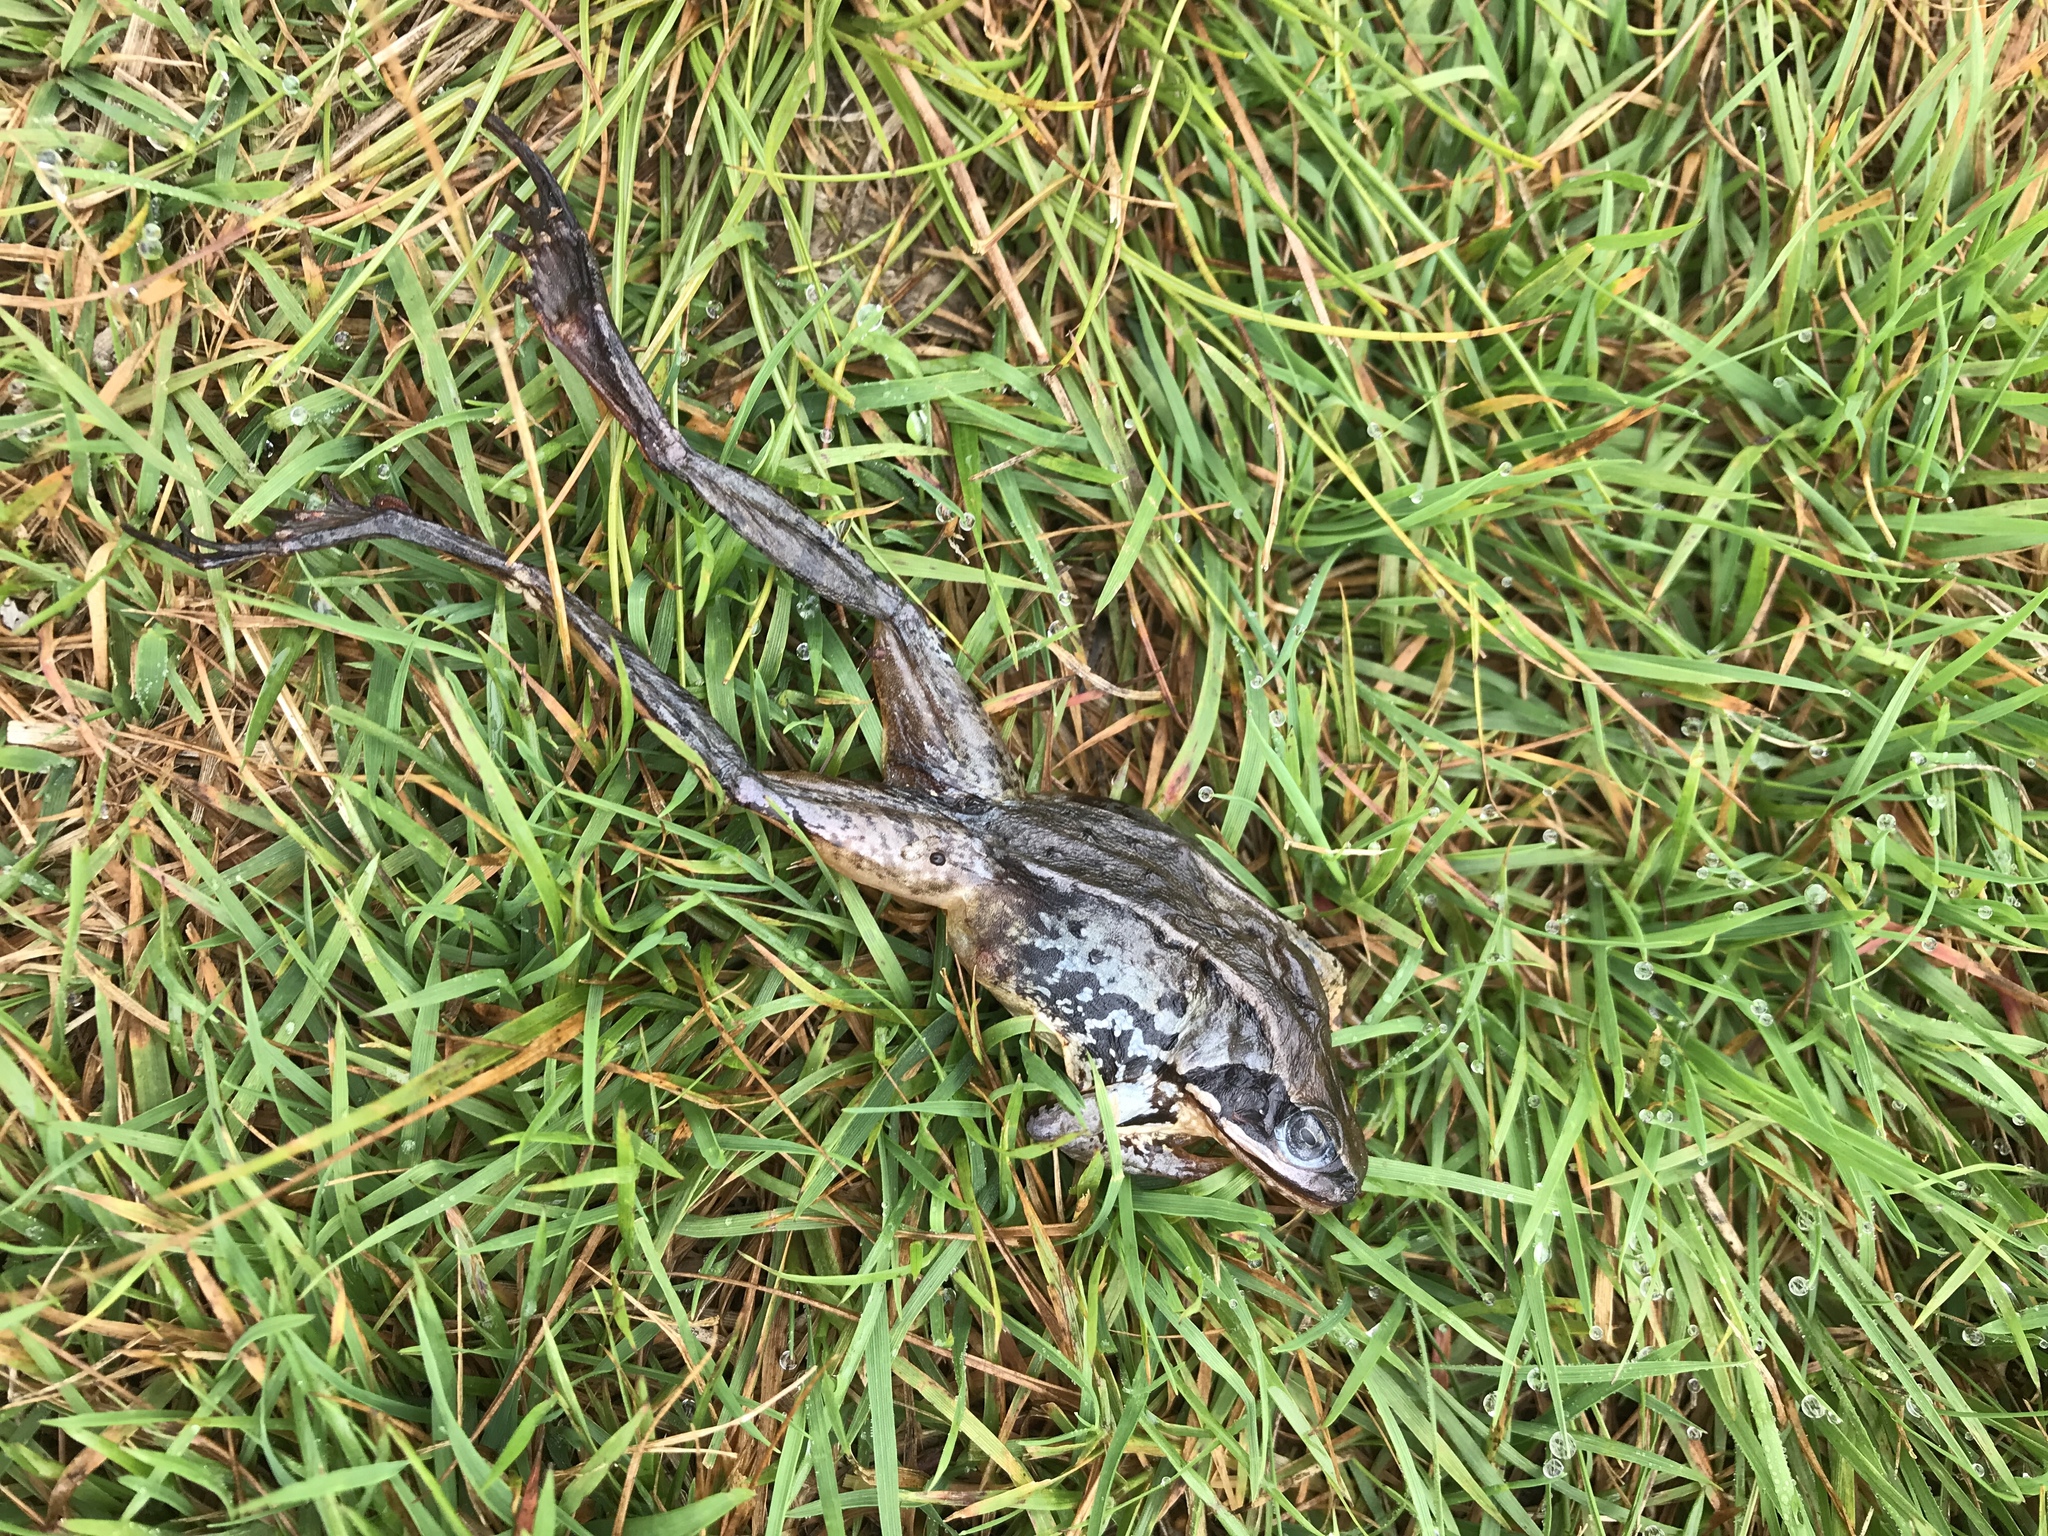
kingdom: Animalia
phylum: Chordata
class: Amphibia
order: Anura
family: Ranidae
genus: Rana
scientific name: Rana temporaria
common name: Common frog
